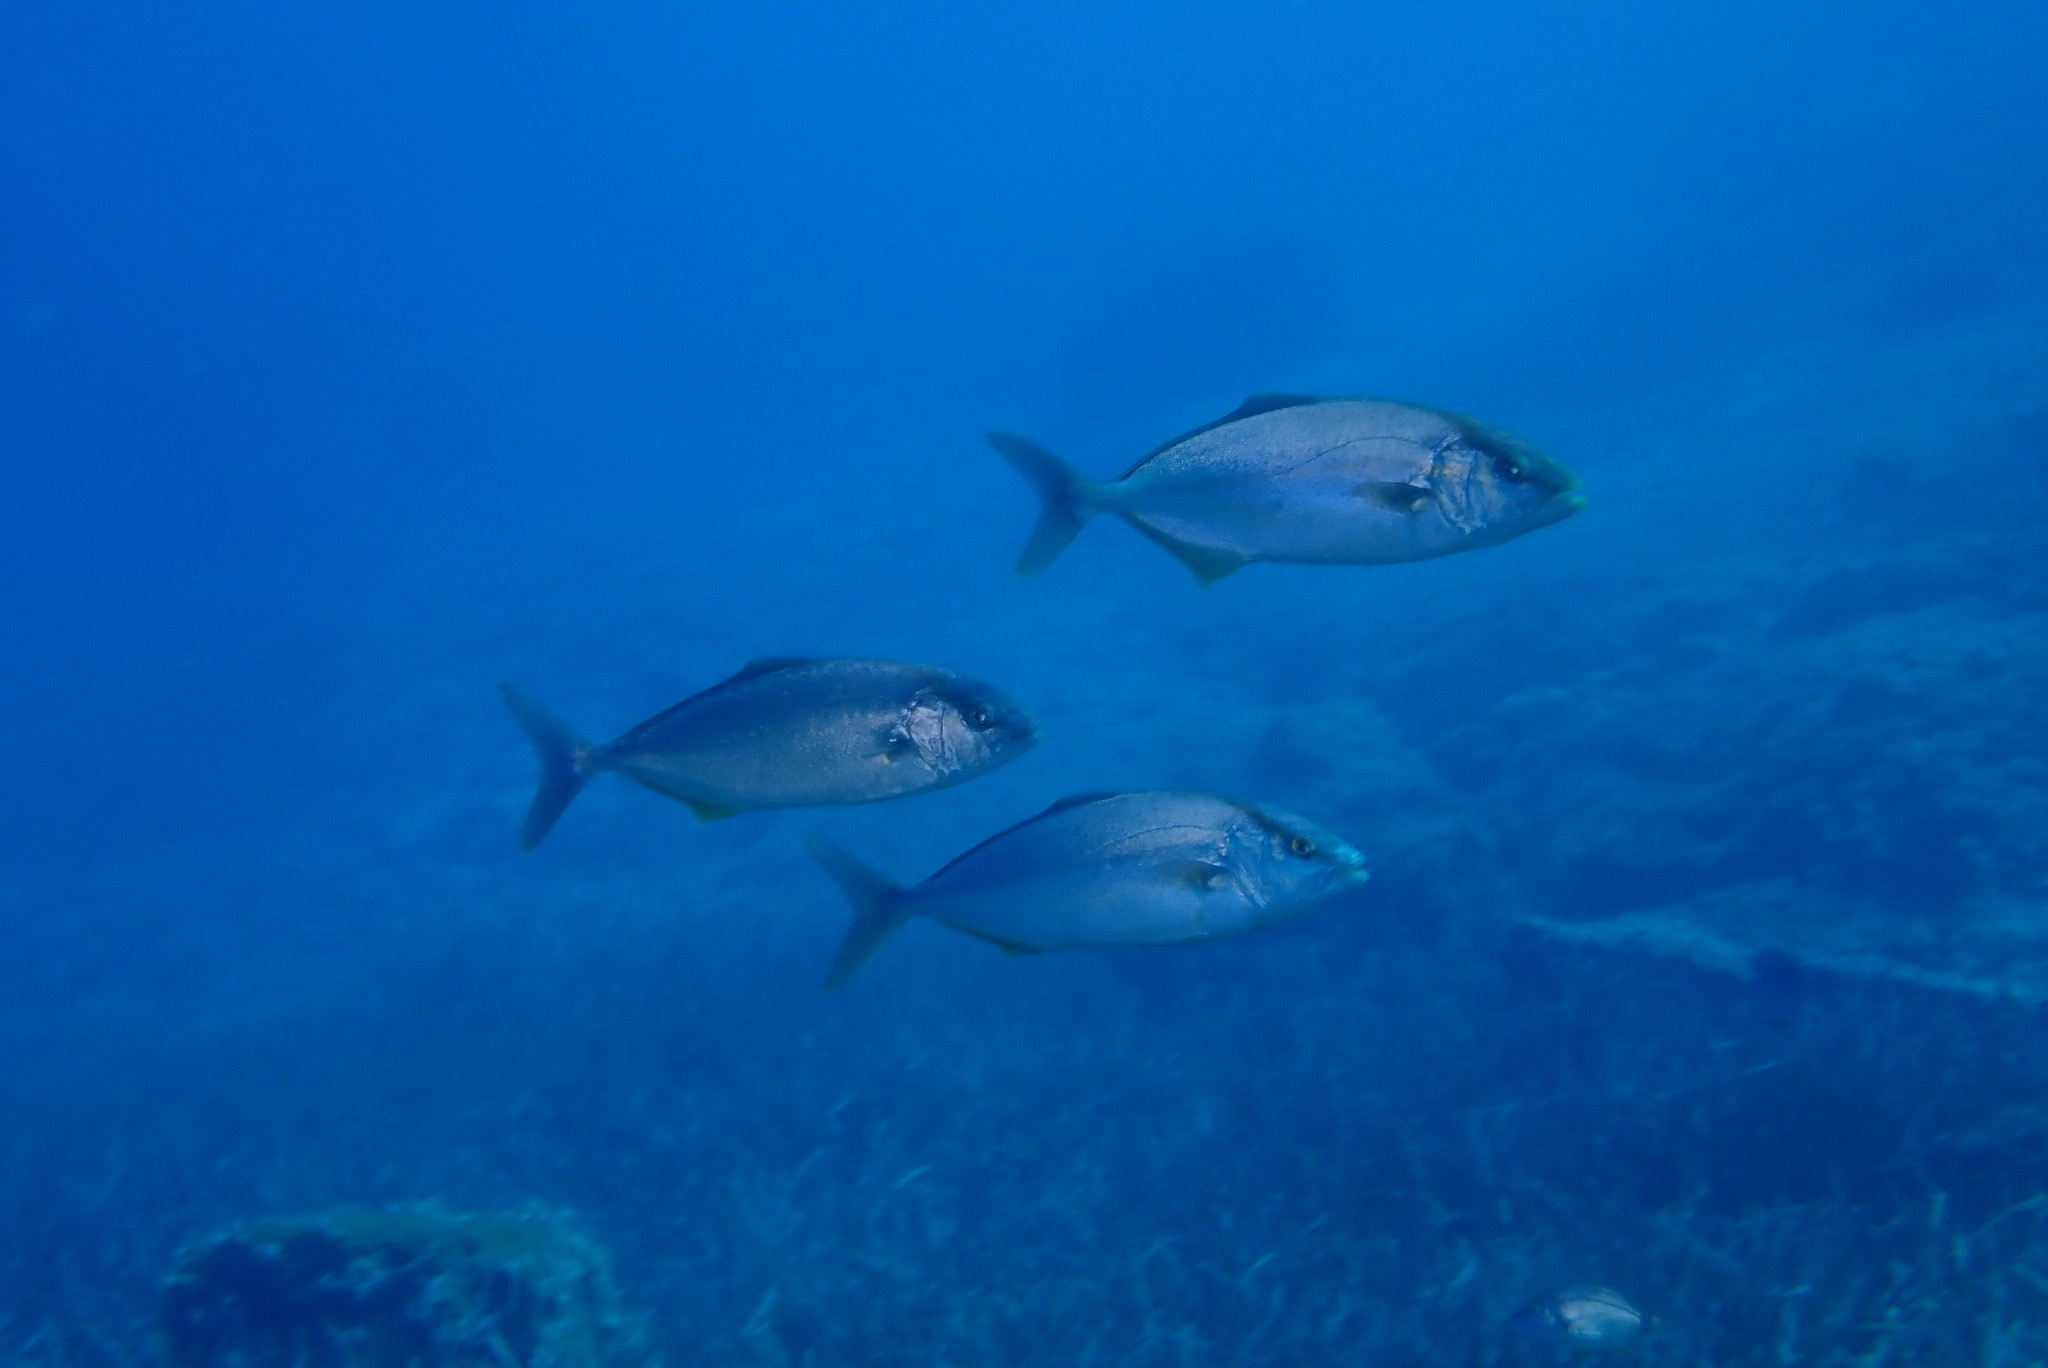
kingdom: Animalia
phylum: Chordata
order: Perciformes
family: Carangidae
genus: Seriola
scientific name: Seriola dumerili
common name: Greater amberjack
